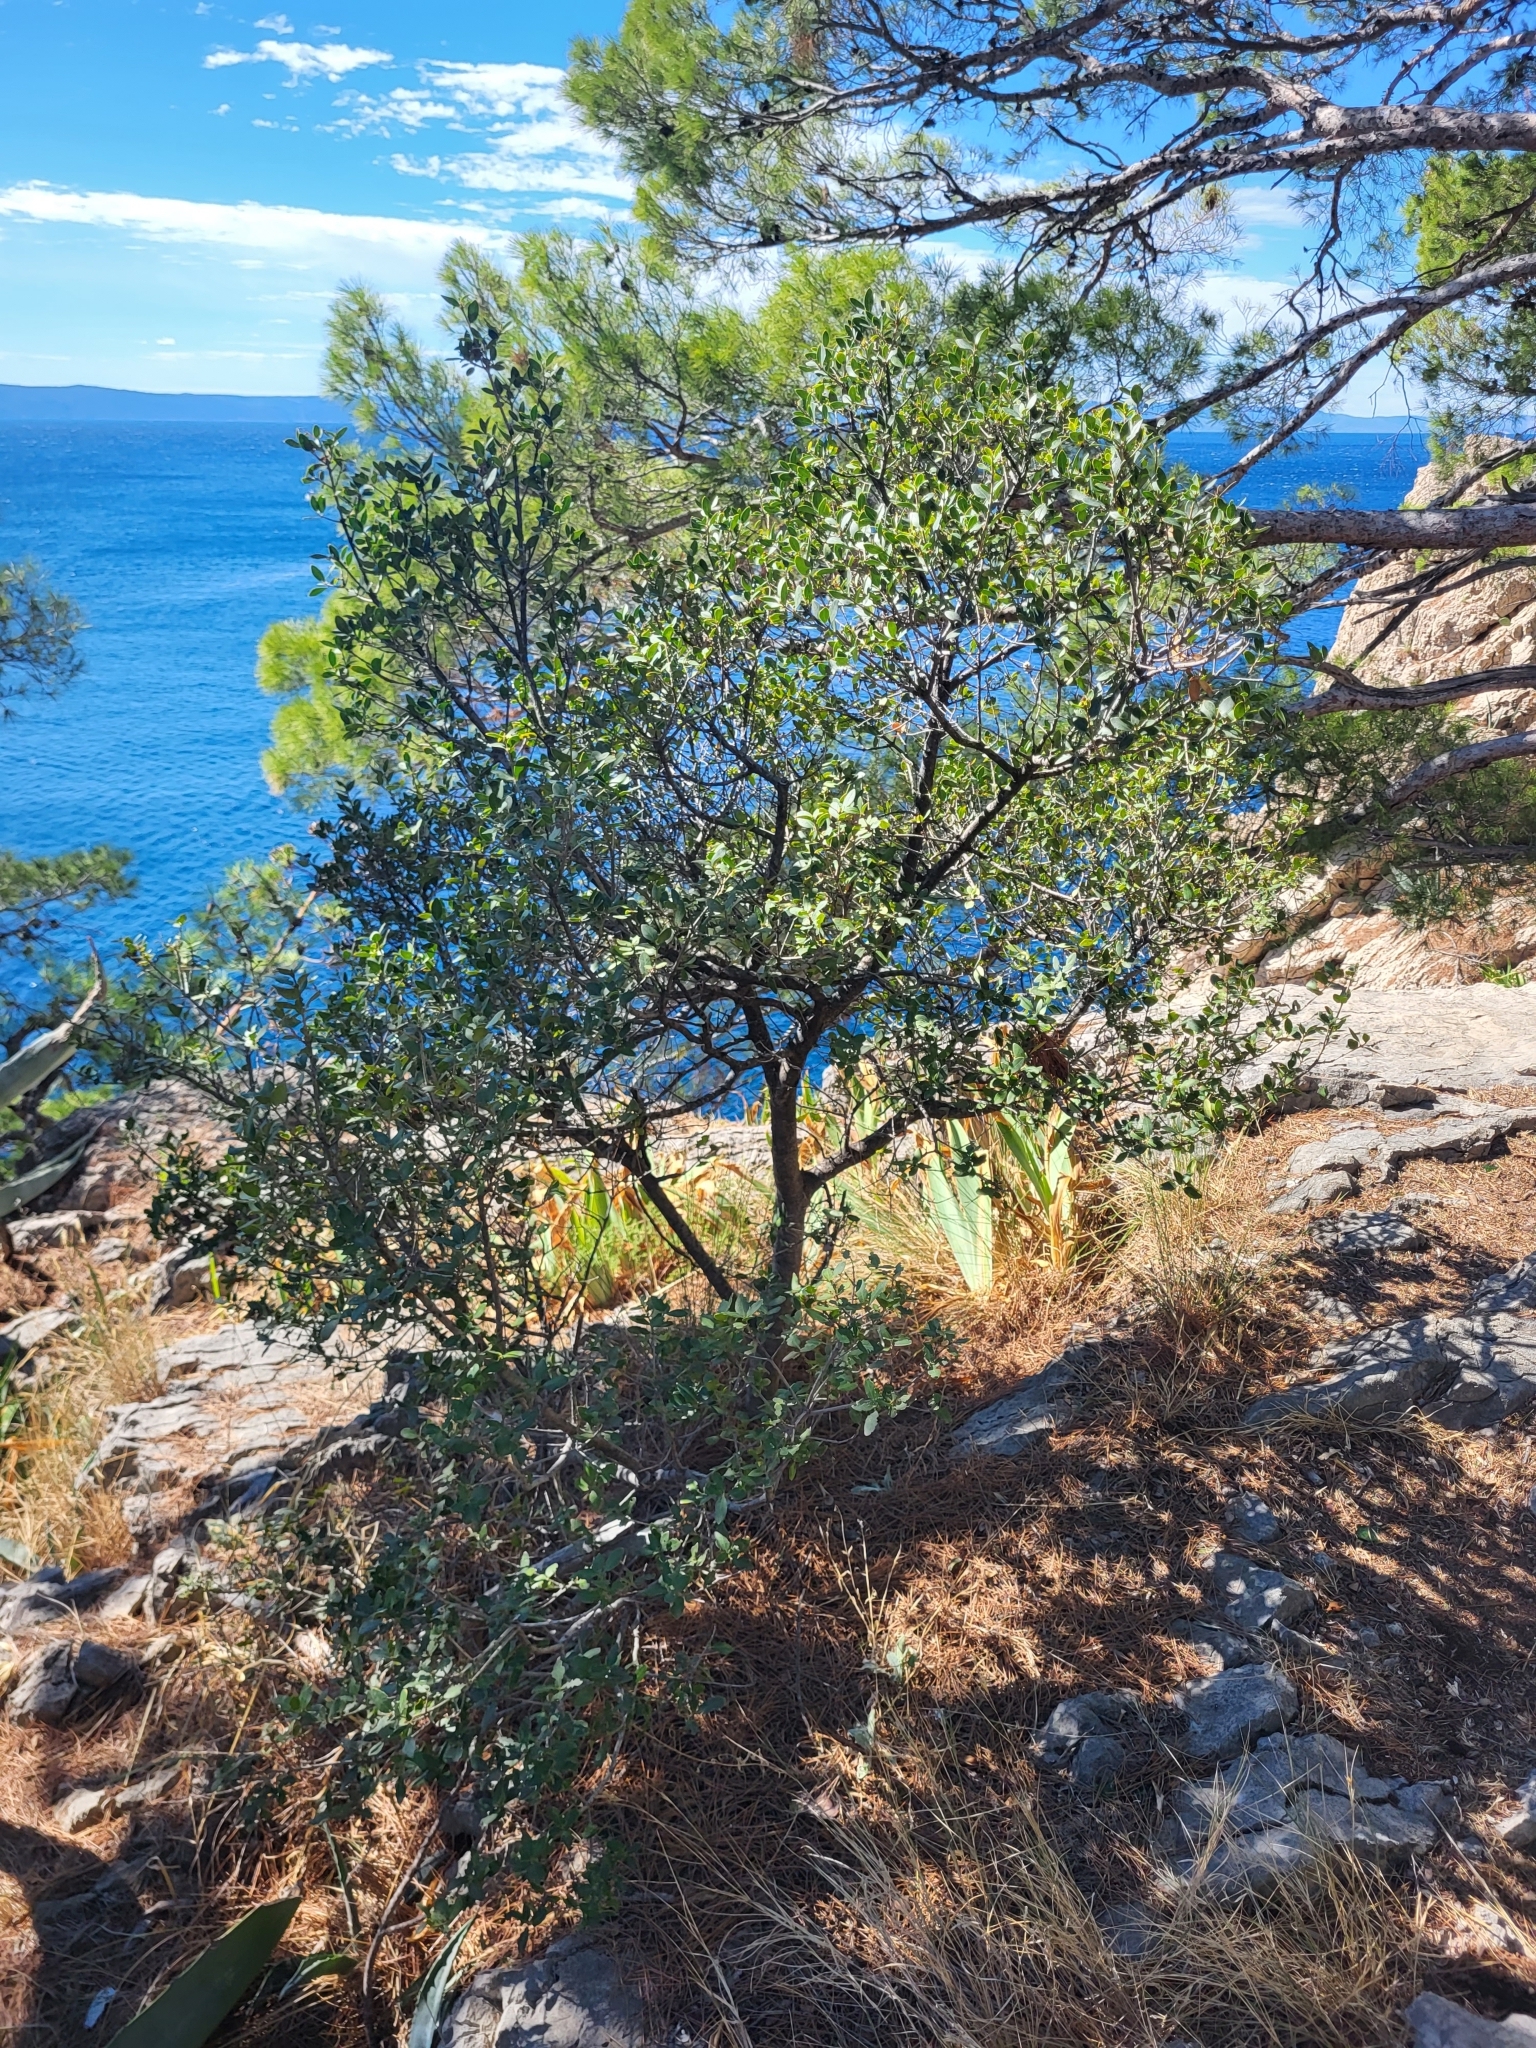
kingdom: Plantae
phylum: Tracheophyta
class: Magnoliopsida
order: Lamiales
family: Oleaceae
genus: Phillyrea
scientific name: Phillyrea latifolia
